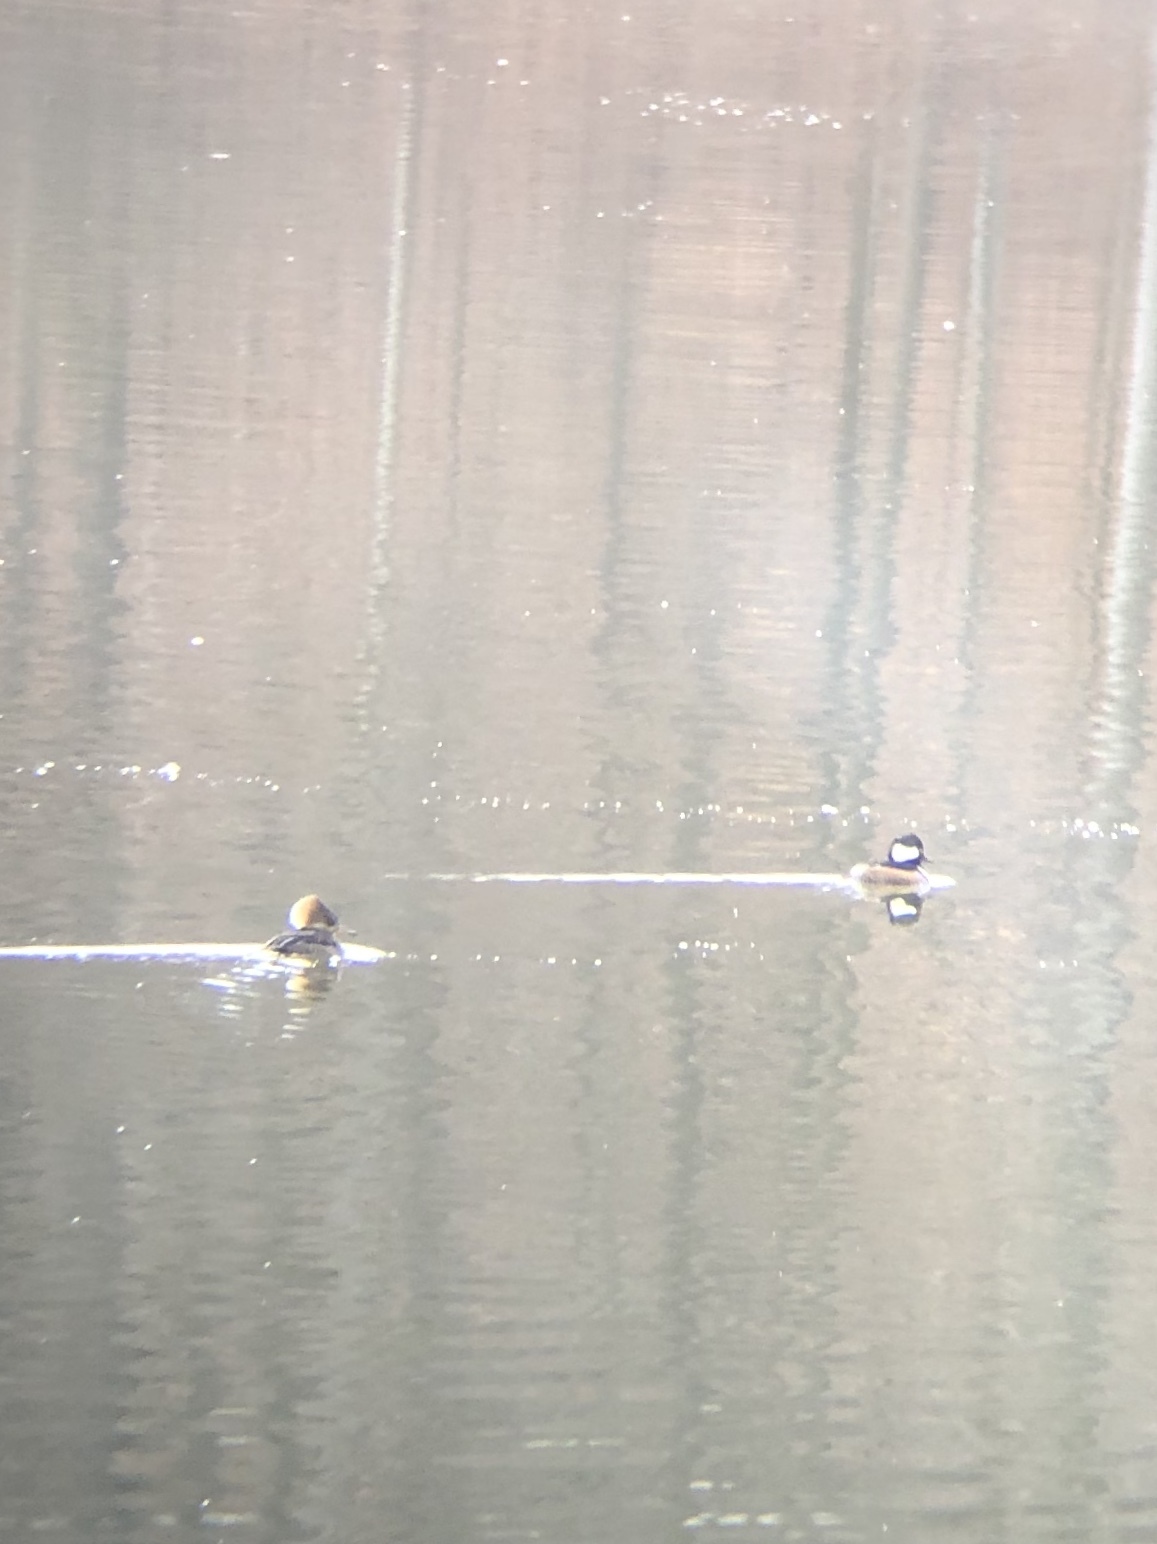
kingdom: Animalia
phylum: Chordata
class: Aves
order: Anseriformes
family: Anatidae
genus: Lophodytes
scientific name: Lophodytes cucullatus
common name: Hooded merganser
